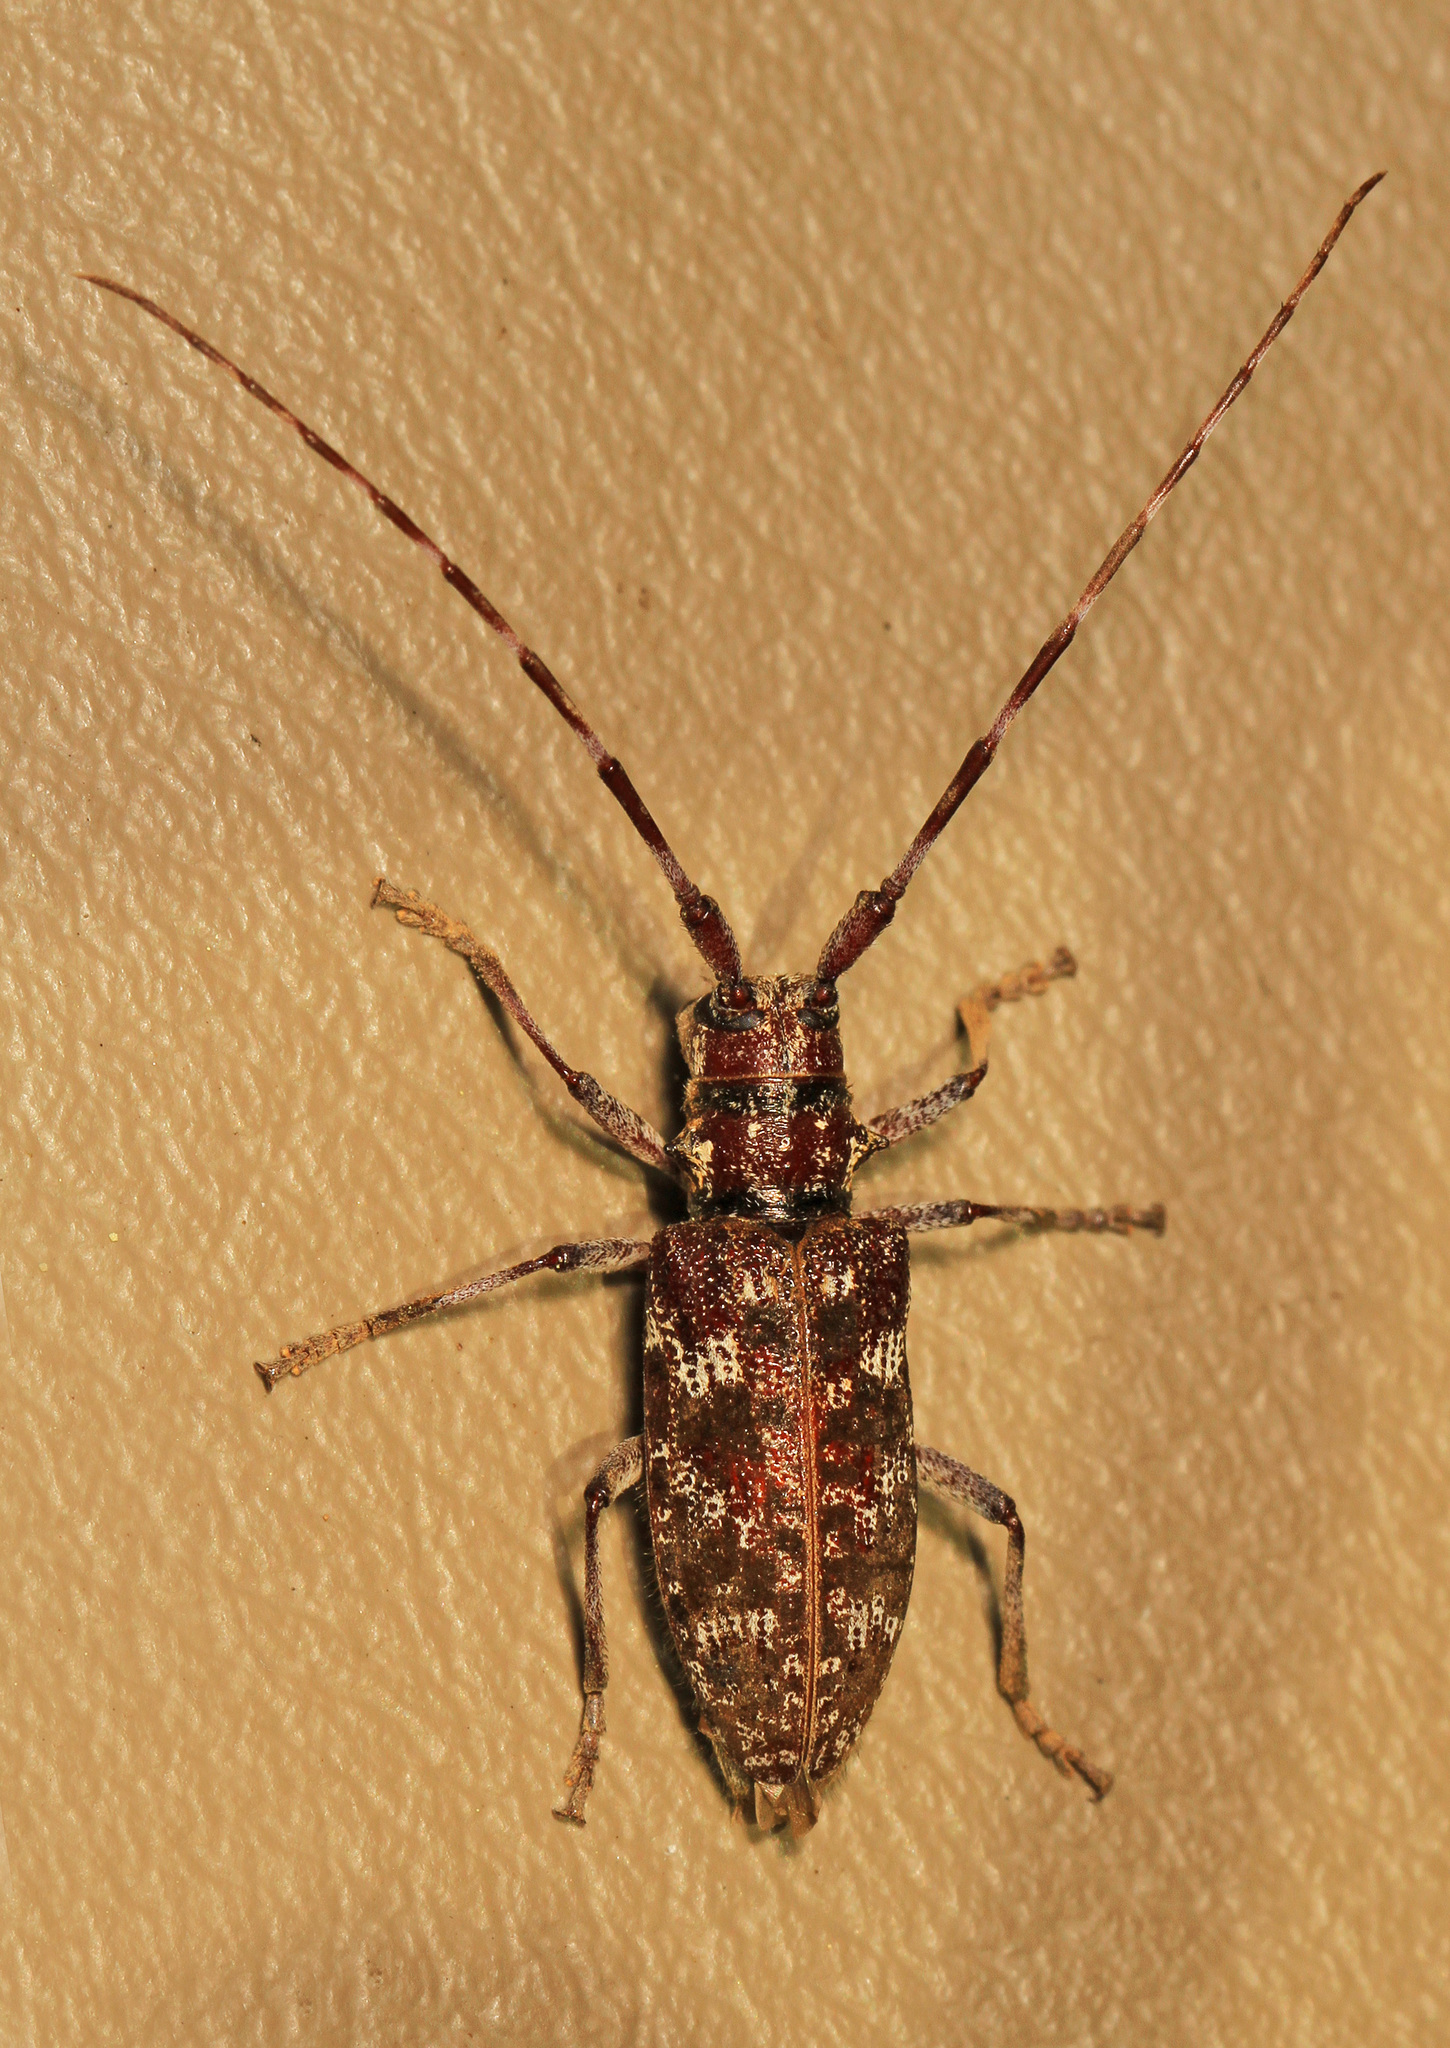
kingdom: Animalia
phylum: Arthropoda
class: Insecta
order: Coleoptera
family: Cerambycidae
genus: Monochamus
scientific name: Monochamus obtusus
